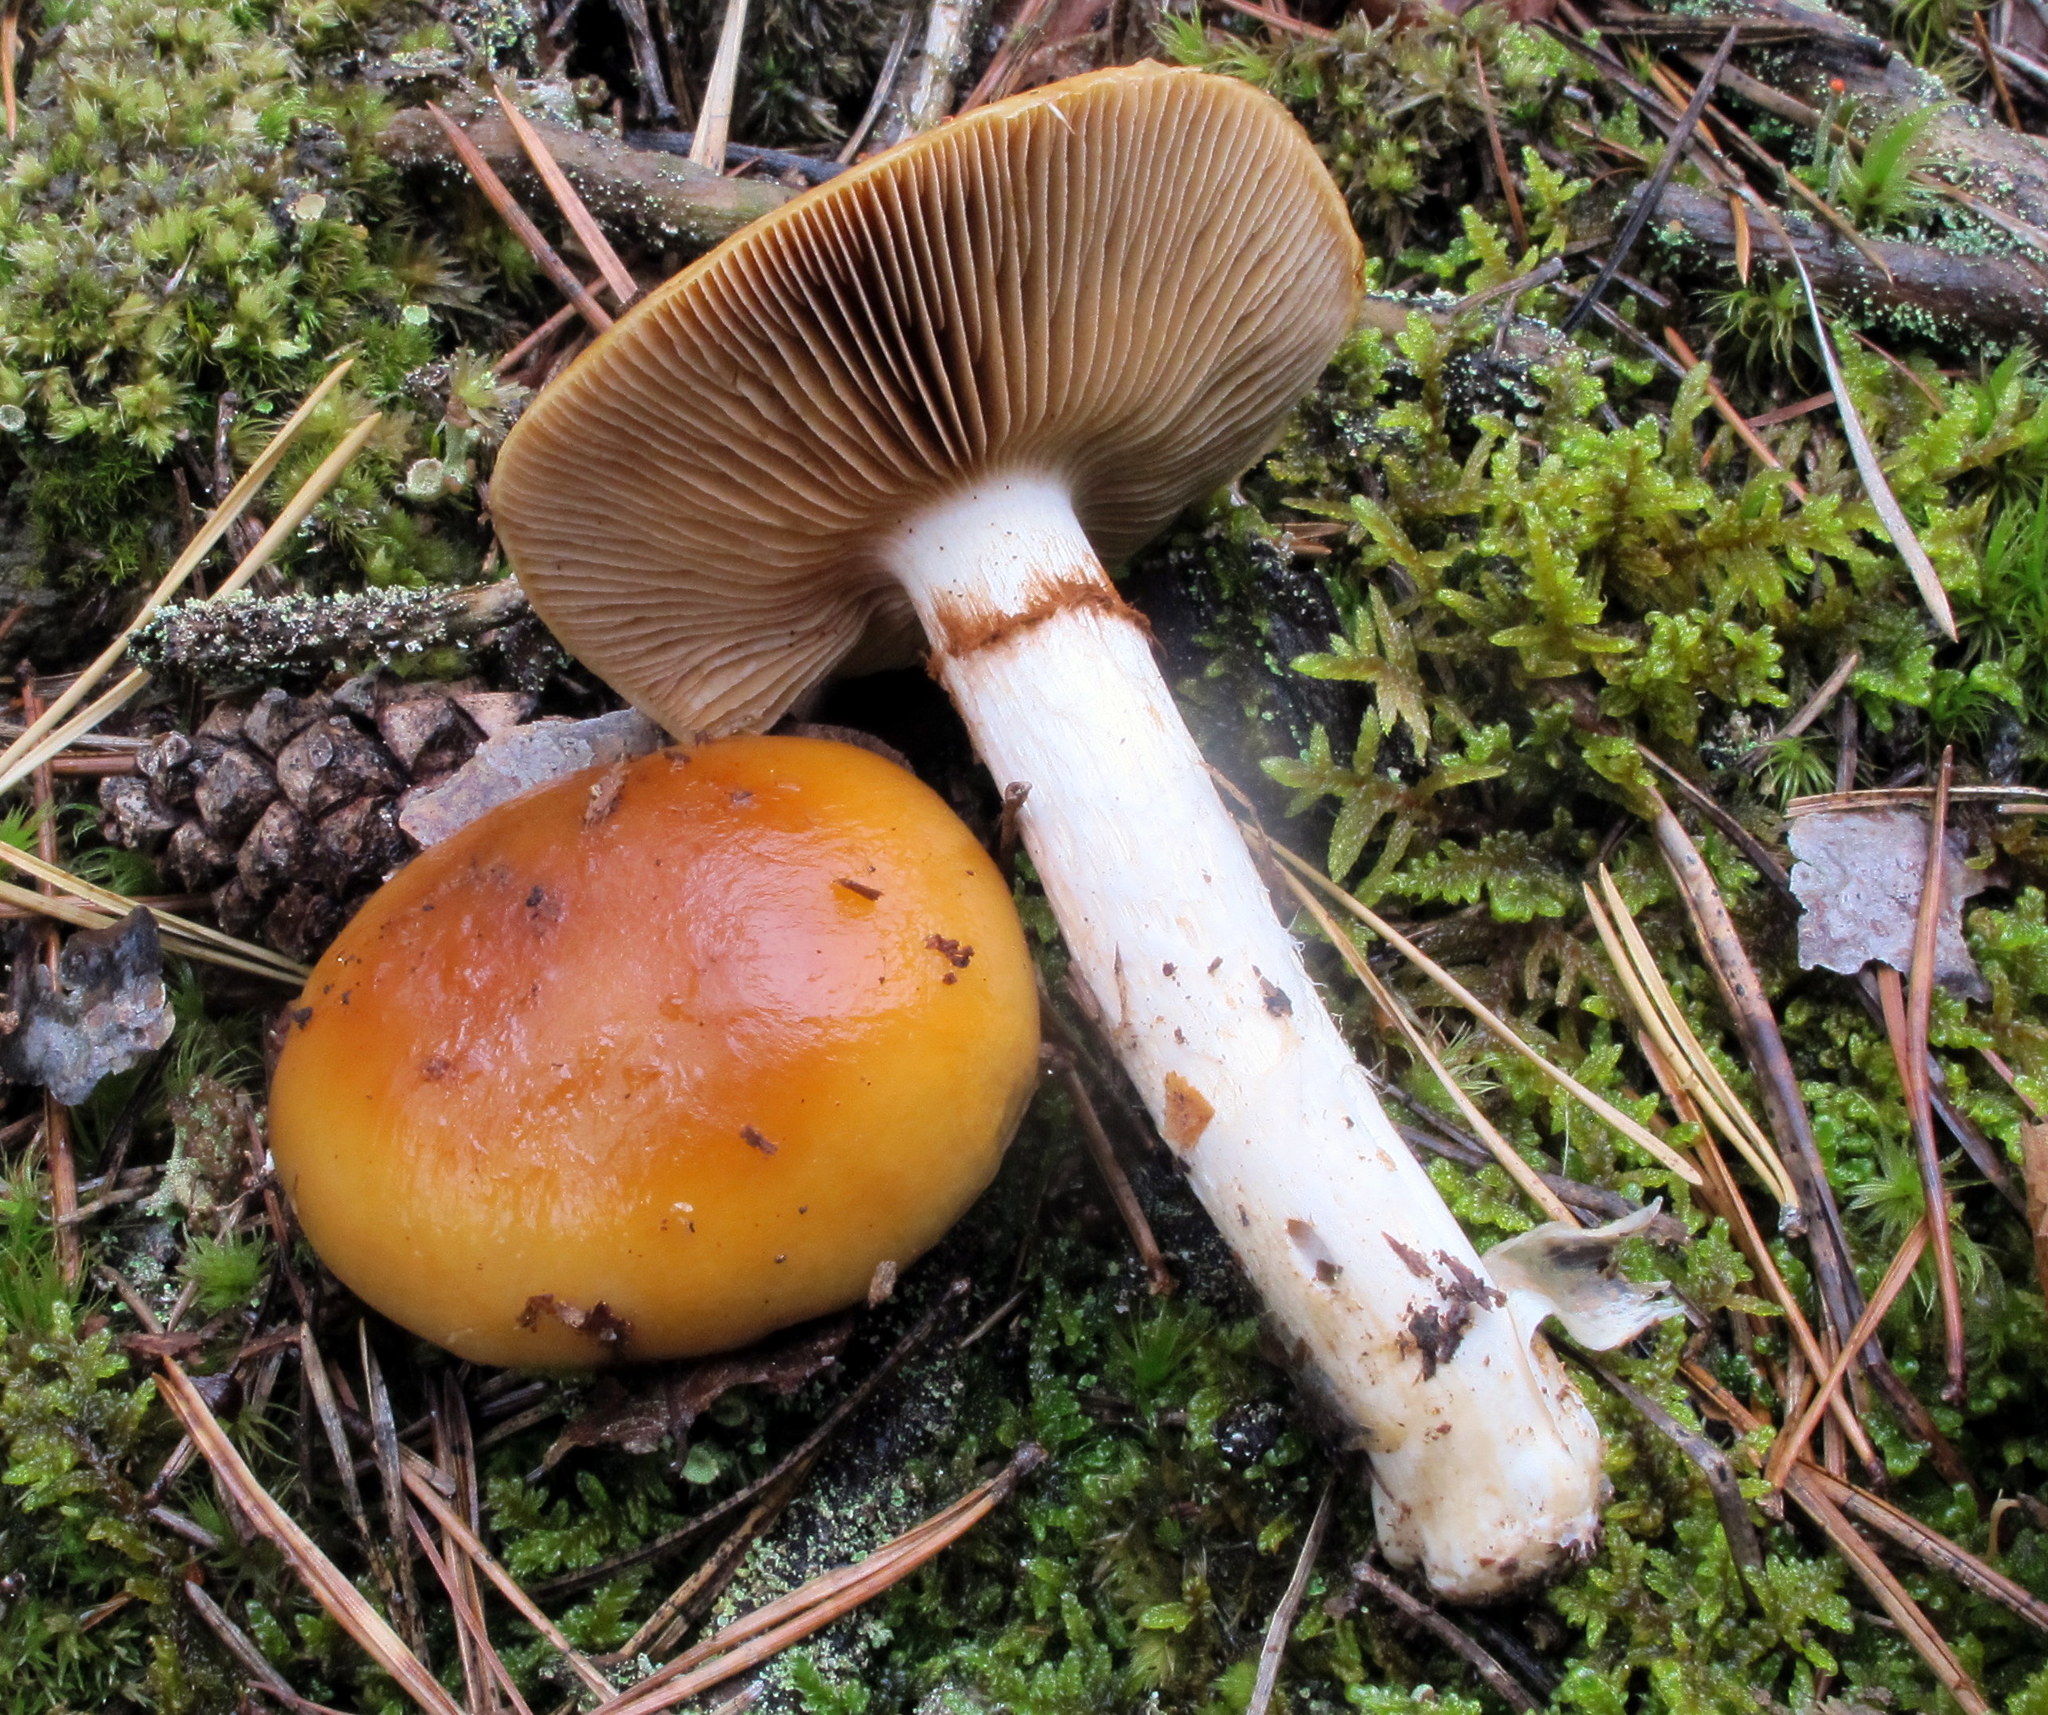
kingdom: Fungi
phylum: Basidiomycota
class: Agaricomycetes
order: Agaricales
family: Cortinariaceae
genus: Cortinarius
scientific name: Cortinarius mucosus
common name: Orange webcap
